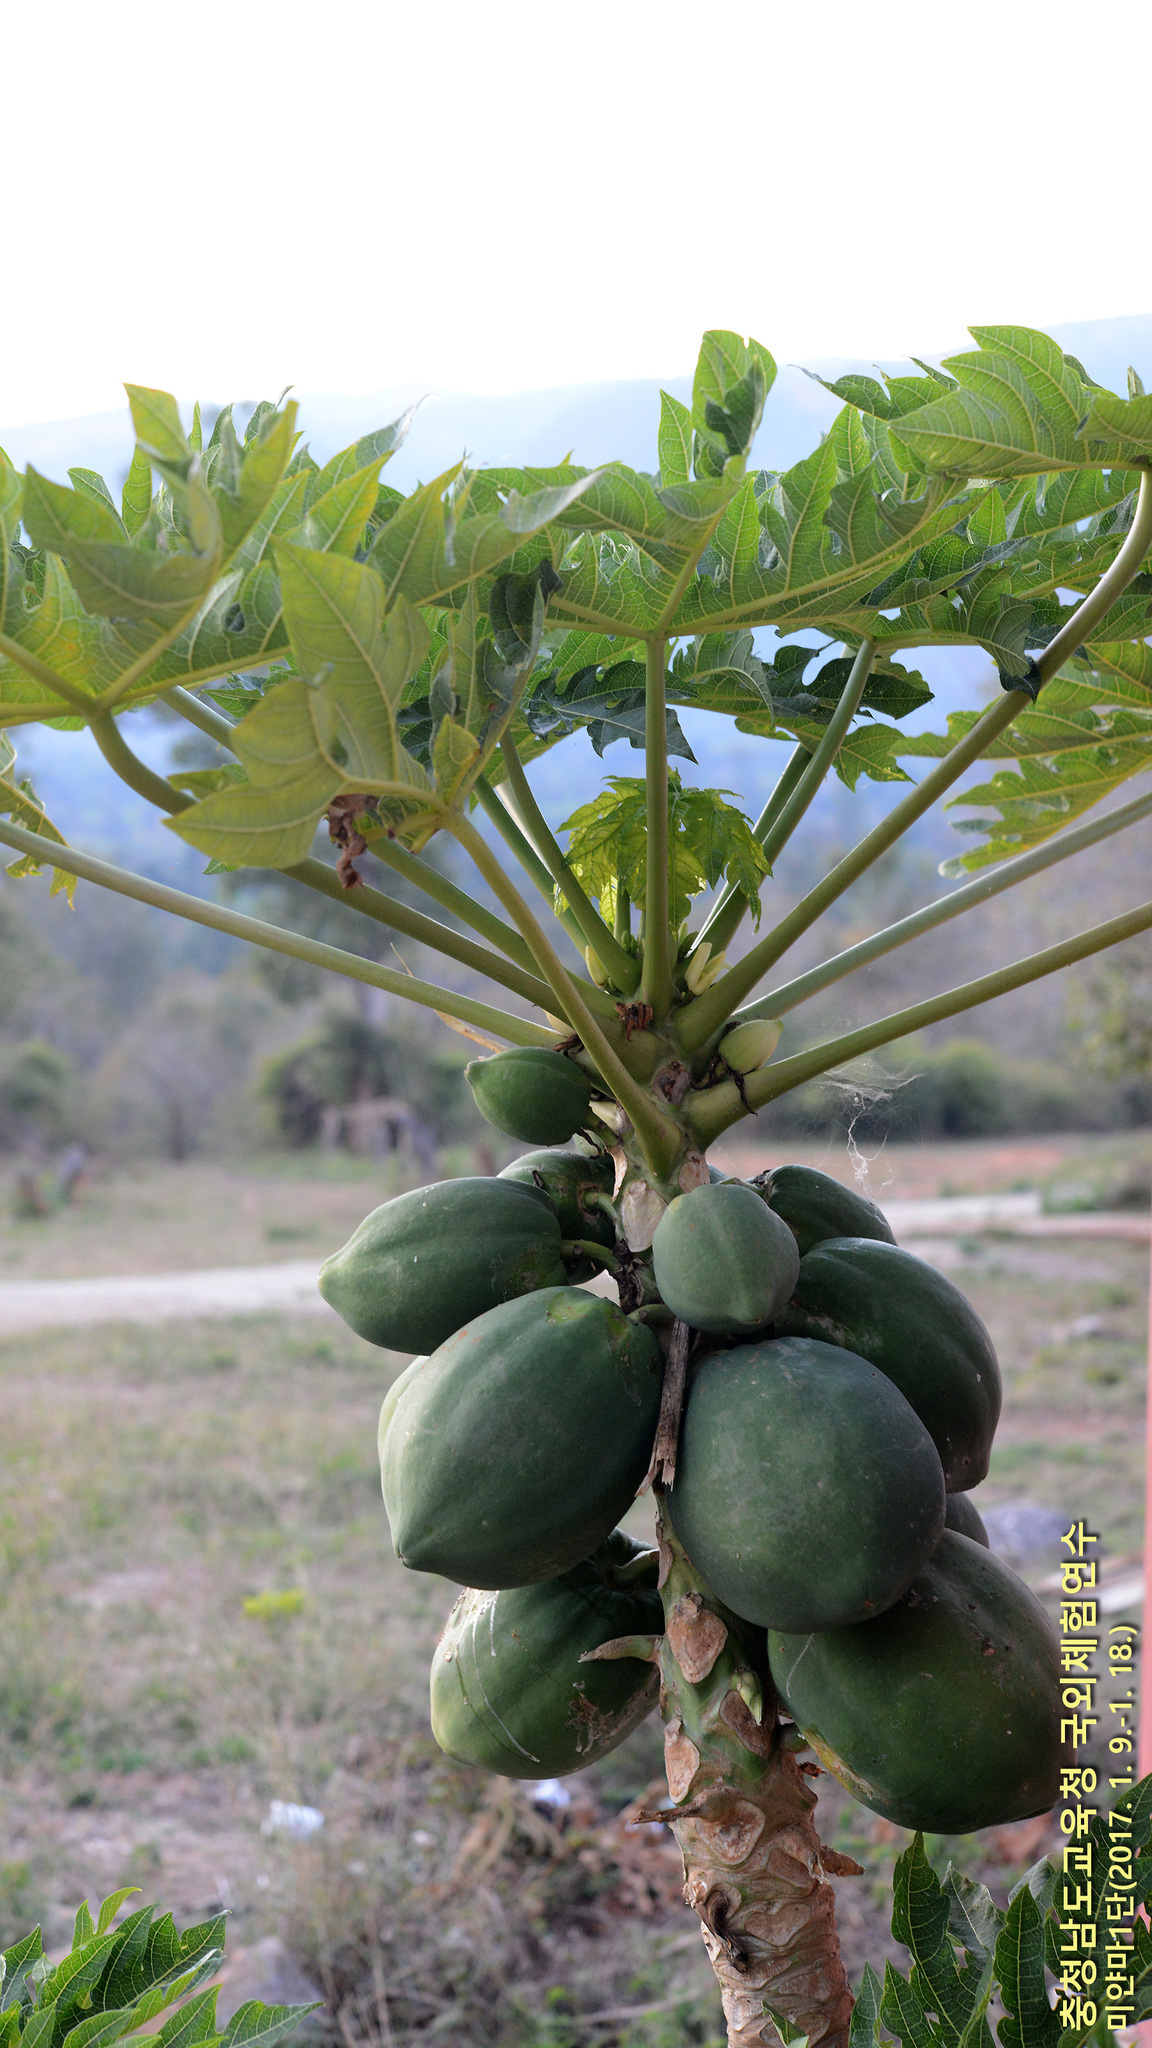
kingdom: Plantae
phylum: Tracheophyta
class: Magnoliopsida
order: Brassicales
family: Caricaceae
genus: Carica
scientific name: Carica papaya
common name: Papaya
